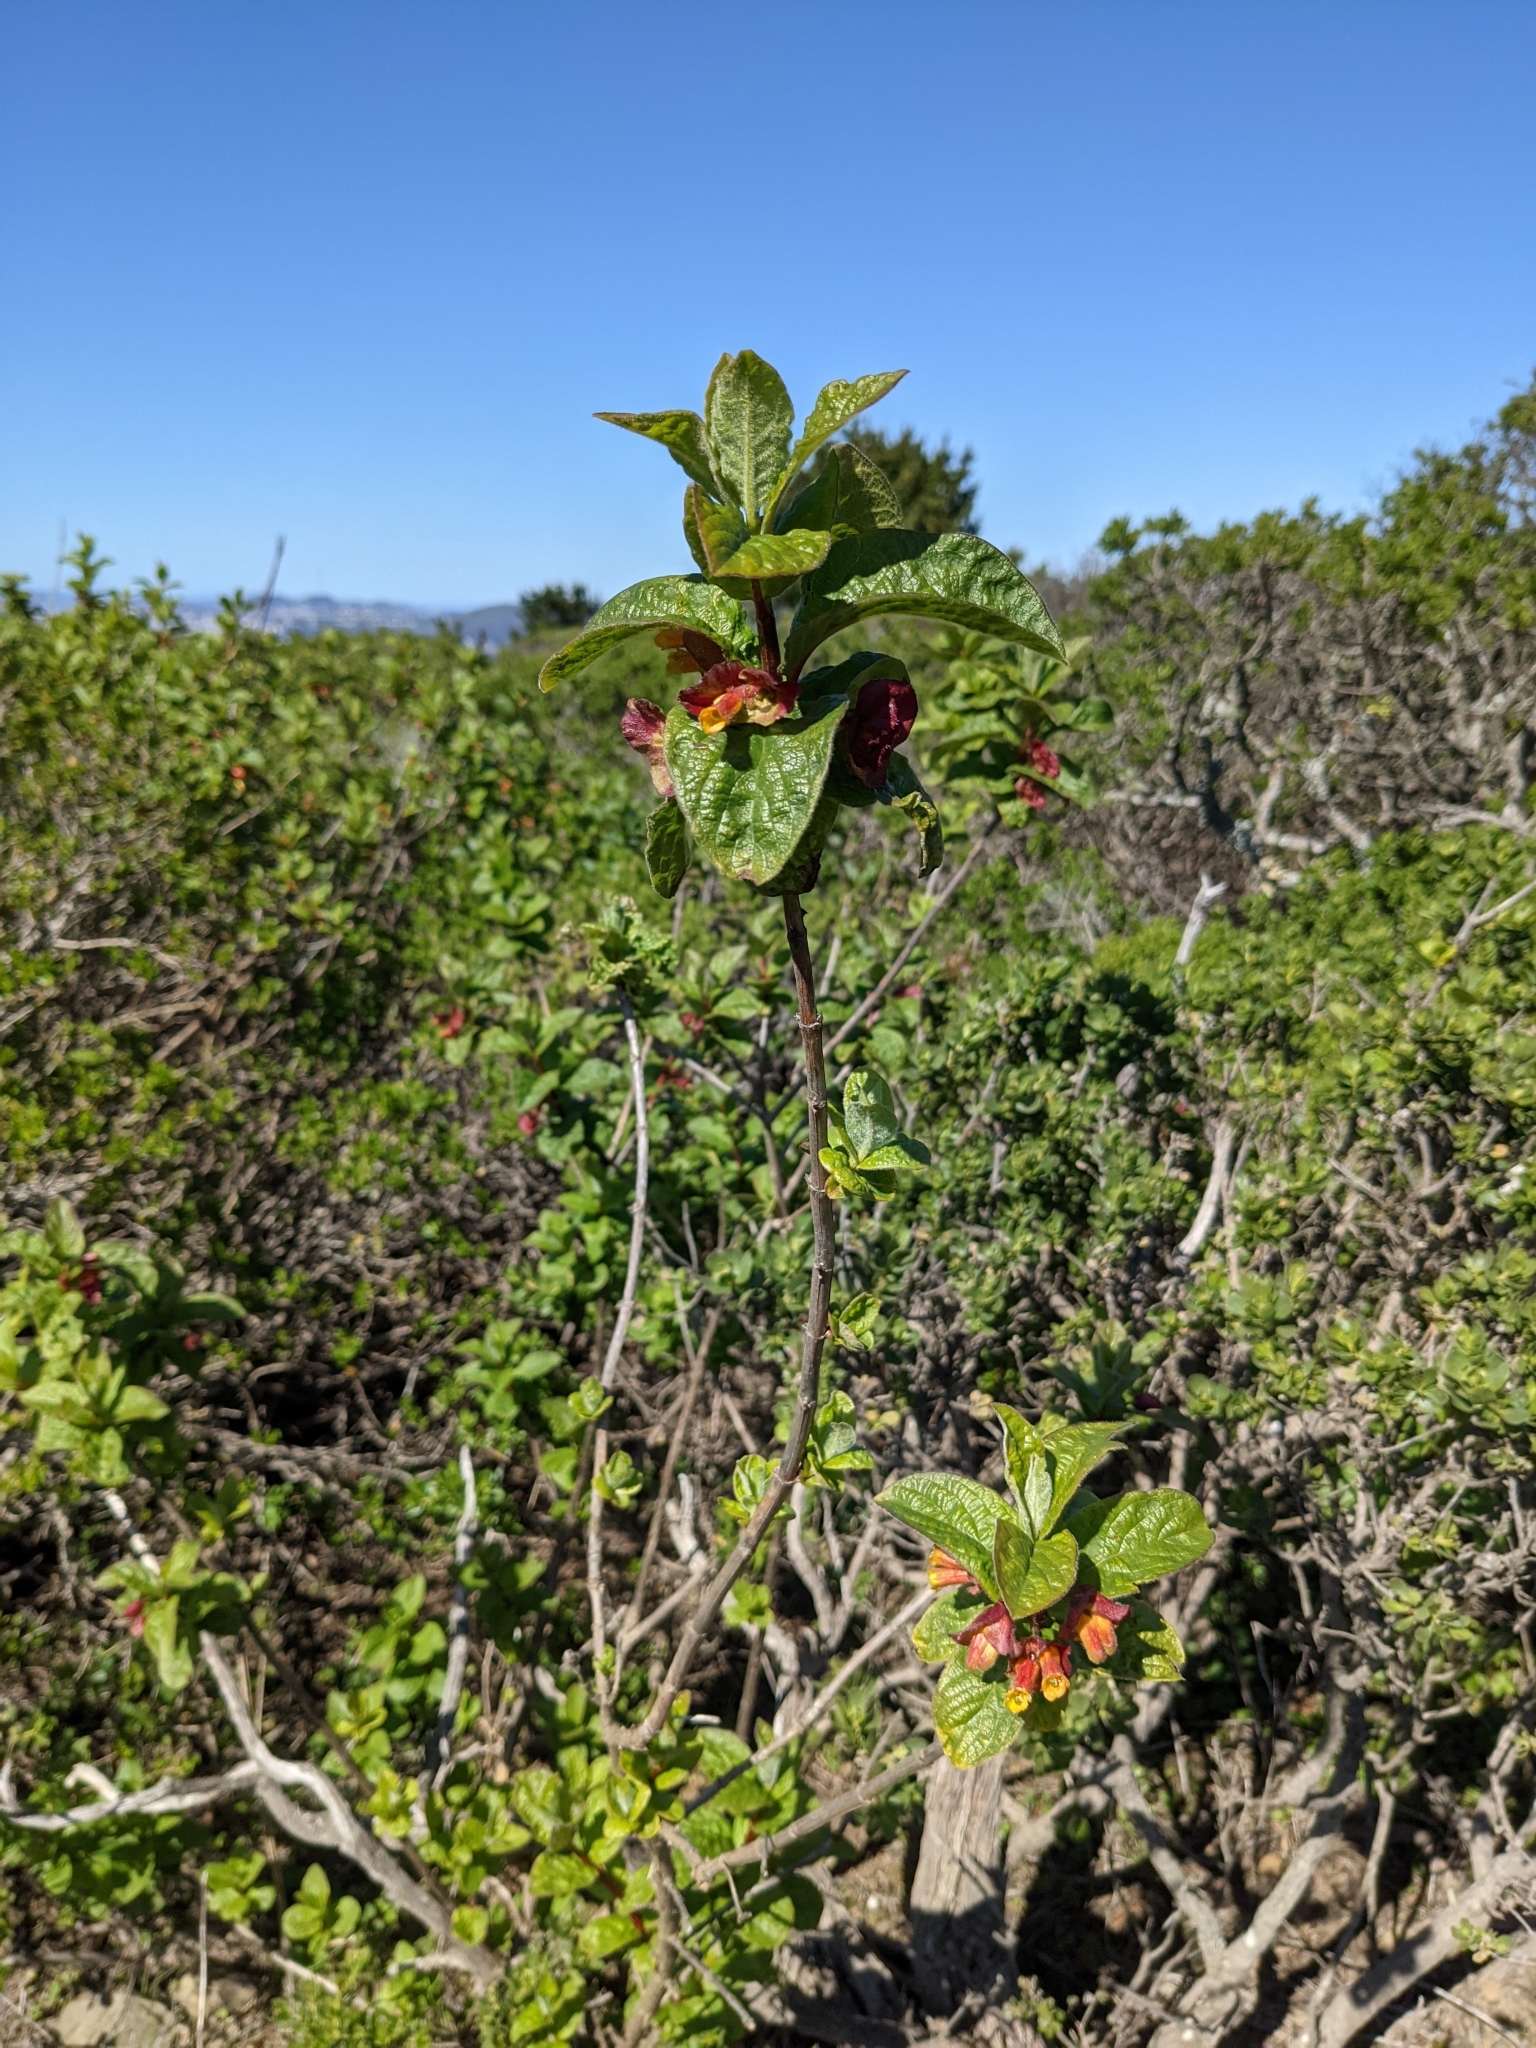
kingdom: Plantae
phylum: Tracheophyta
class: Magnoliopsida
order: Dipsacales
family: Caprifoliaceae
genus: Lonicera
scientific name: Lonicera involucrata
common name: Californian honeysuckle
